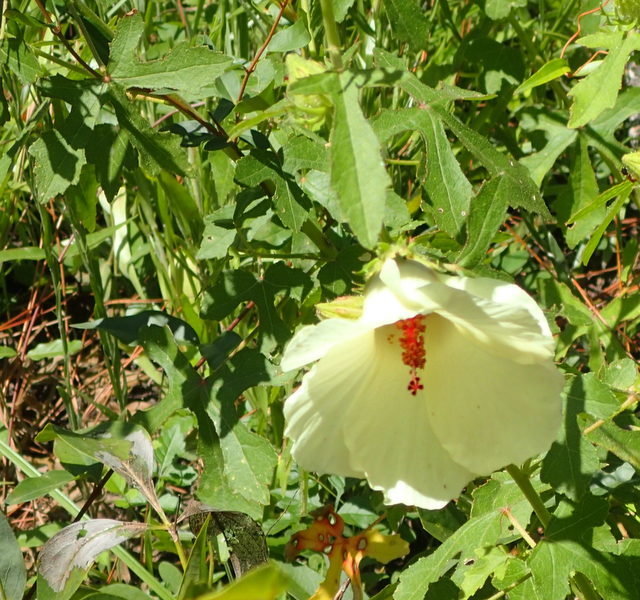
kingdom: Plantae
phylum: Tracheophyta
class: Magnoliopsida
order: Malvales
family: Malvaceae
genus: Hibiscus
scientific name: Hibiscus aculeatus
